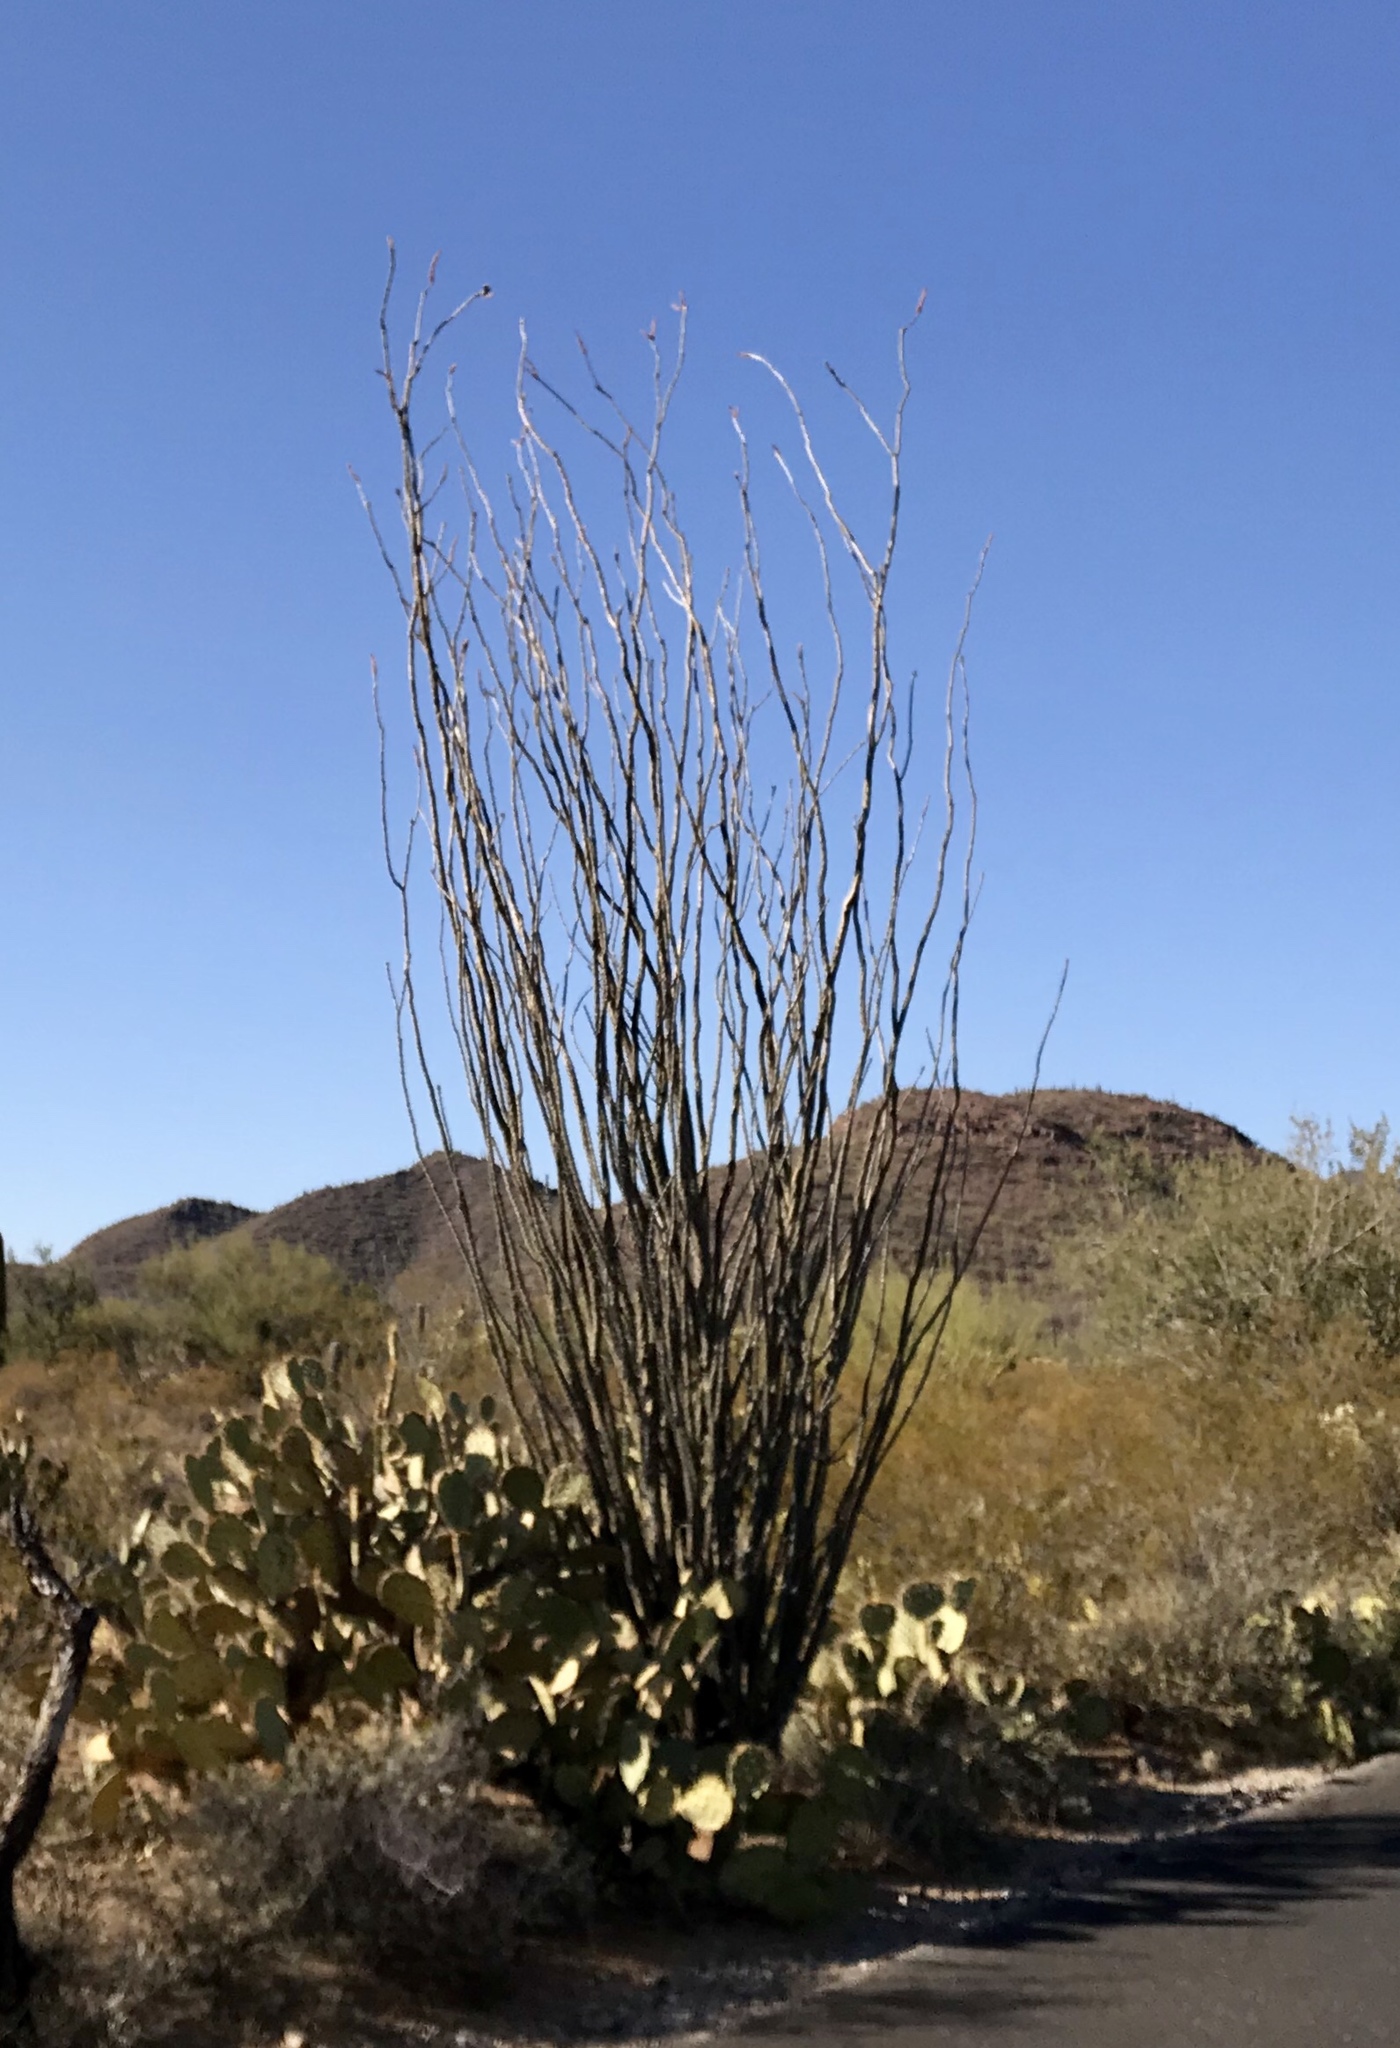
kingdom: Plantae
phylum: Tracheophyta
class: Magnoliopsida
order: Ericales
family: Fouquieriaceae
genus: Fouquieria
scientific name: Fouquieria splendens
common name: Vine-cactus
